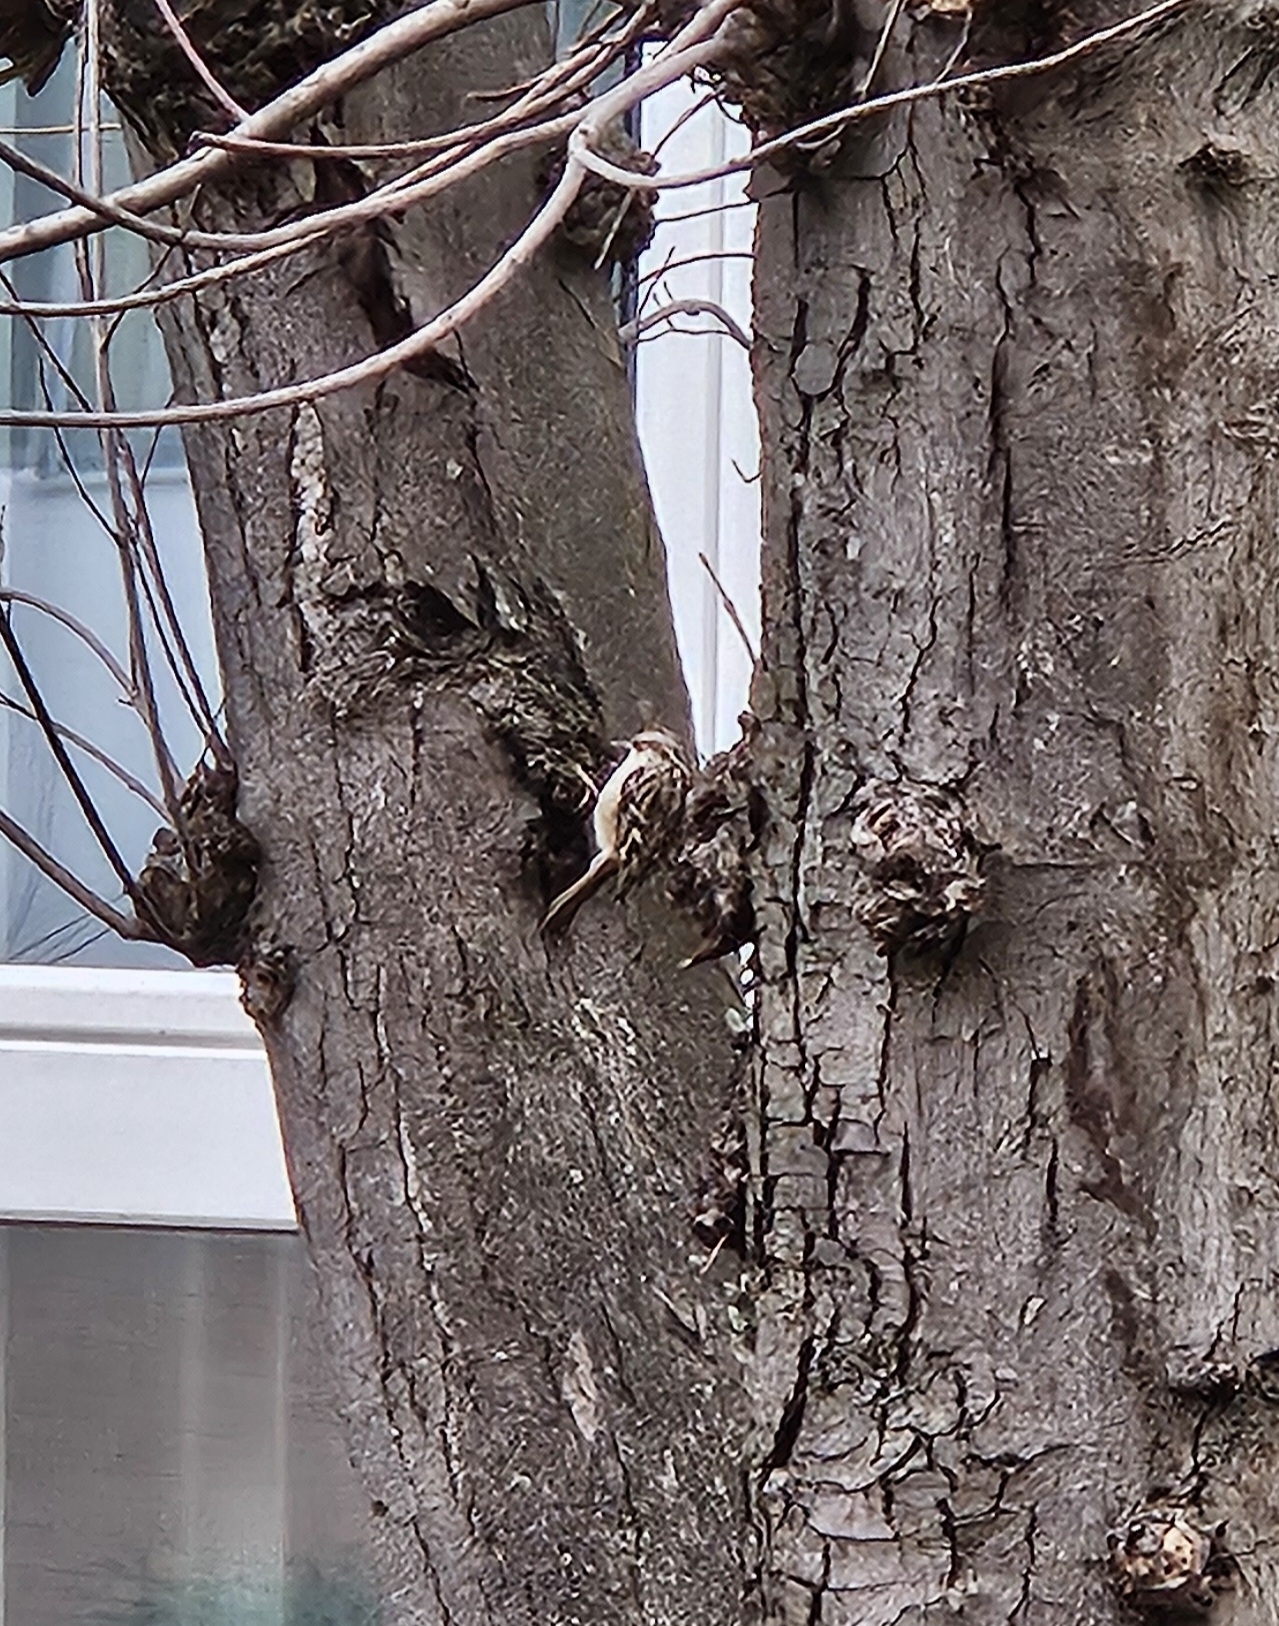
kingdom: Animalia
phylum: Chordata
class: Aves
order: Passeriformes
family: Certhiidae
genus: Certhia
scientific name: Certhia brachydactyla
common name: Short-toed treecreeper
